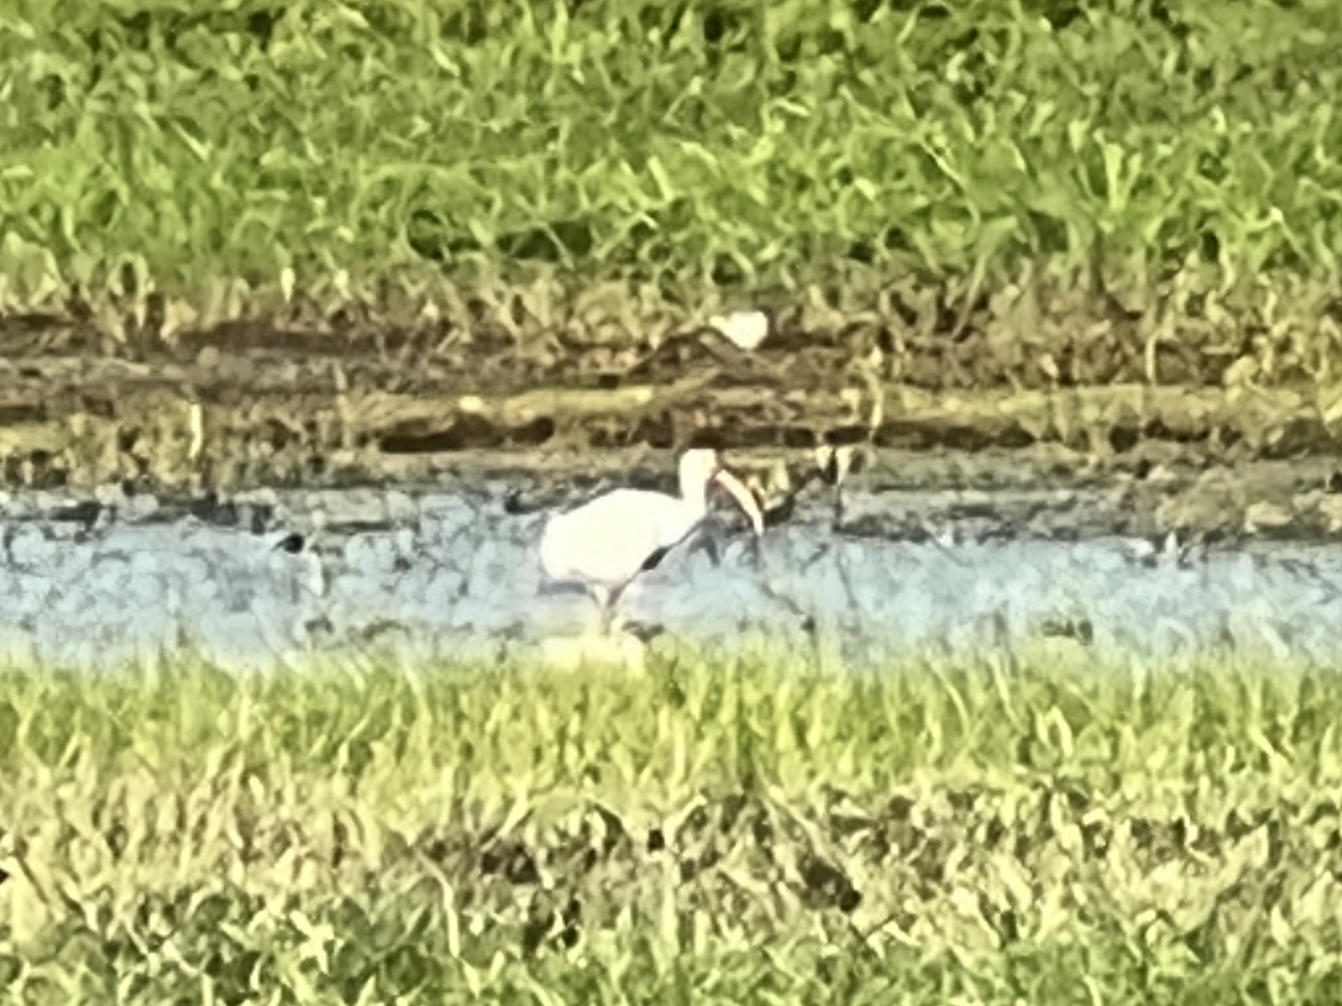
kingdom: Animalia
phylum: Chordata
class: Aves
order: Pelecaniformes
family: Threskiornithidae
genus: Eudocimus
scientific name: Eudocimus albus
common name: White ibis
